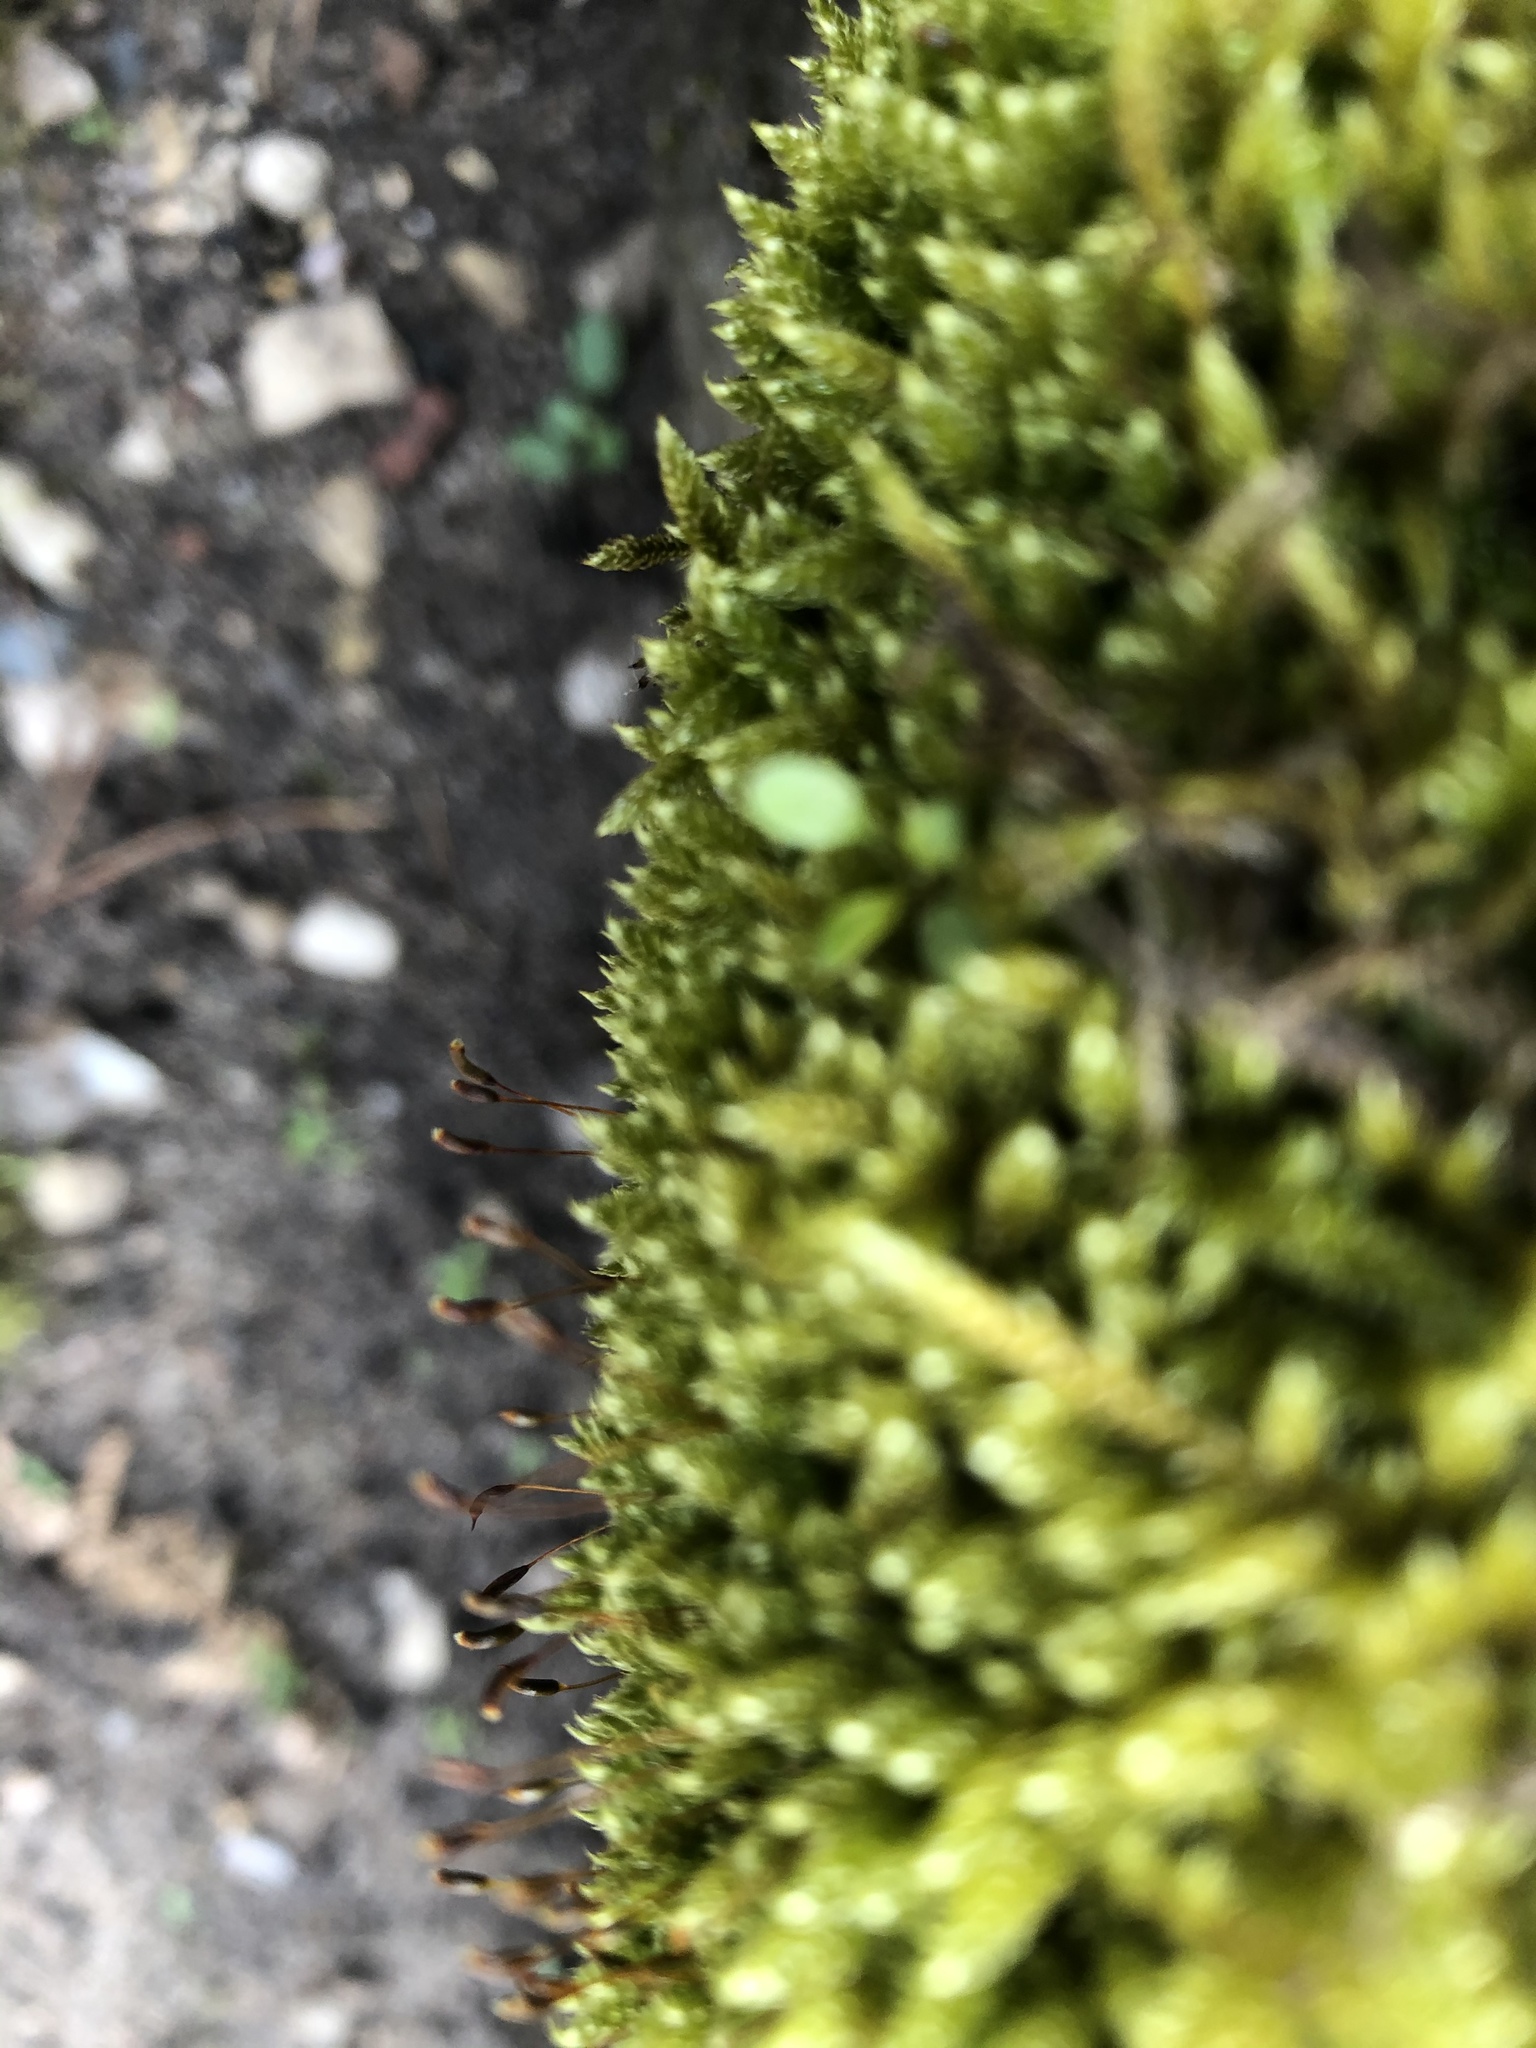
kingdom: Plantae
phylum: Bryophyta
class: Bryopsida
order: Hypnales
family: Hypnaceae
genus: Hypnum
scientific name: Hypnum cupressiforme
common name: Cypress-leaved plait-moss
